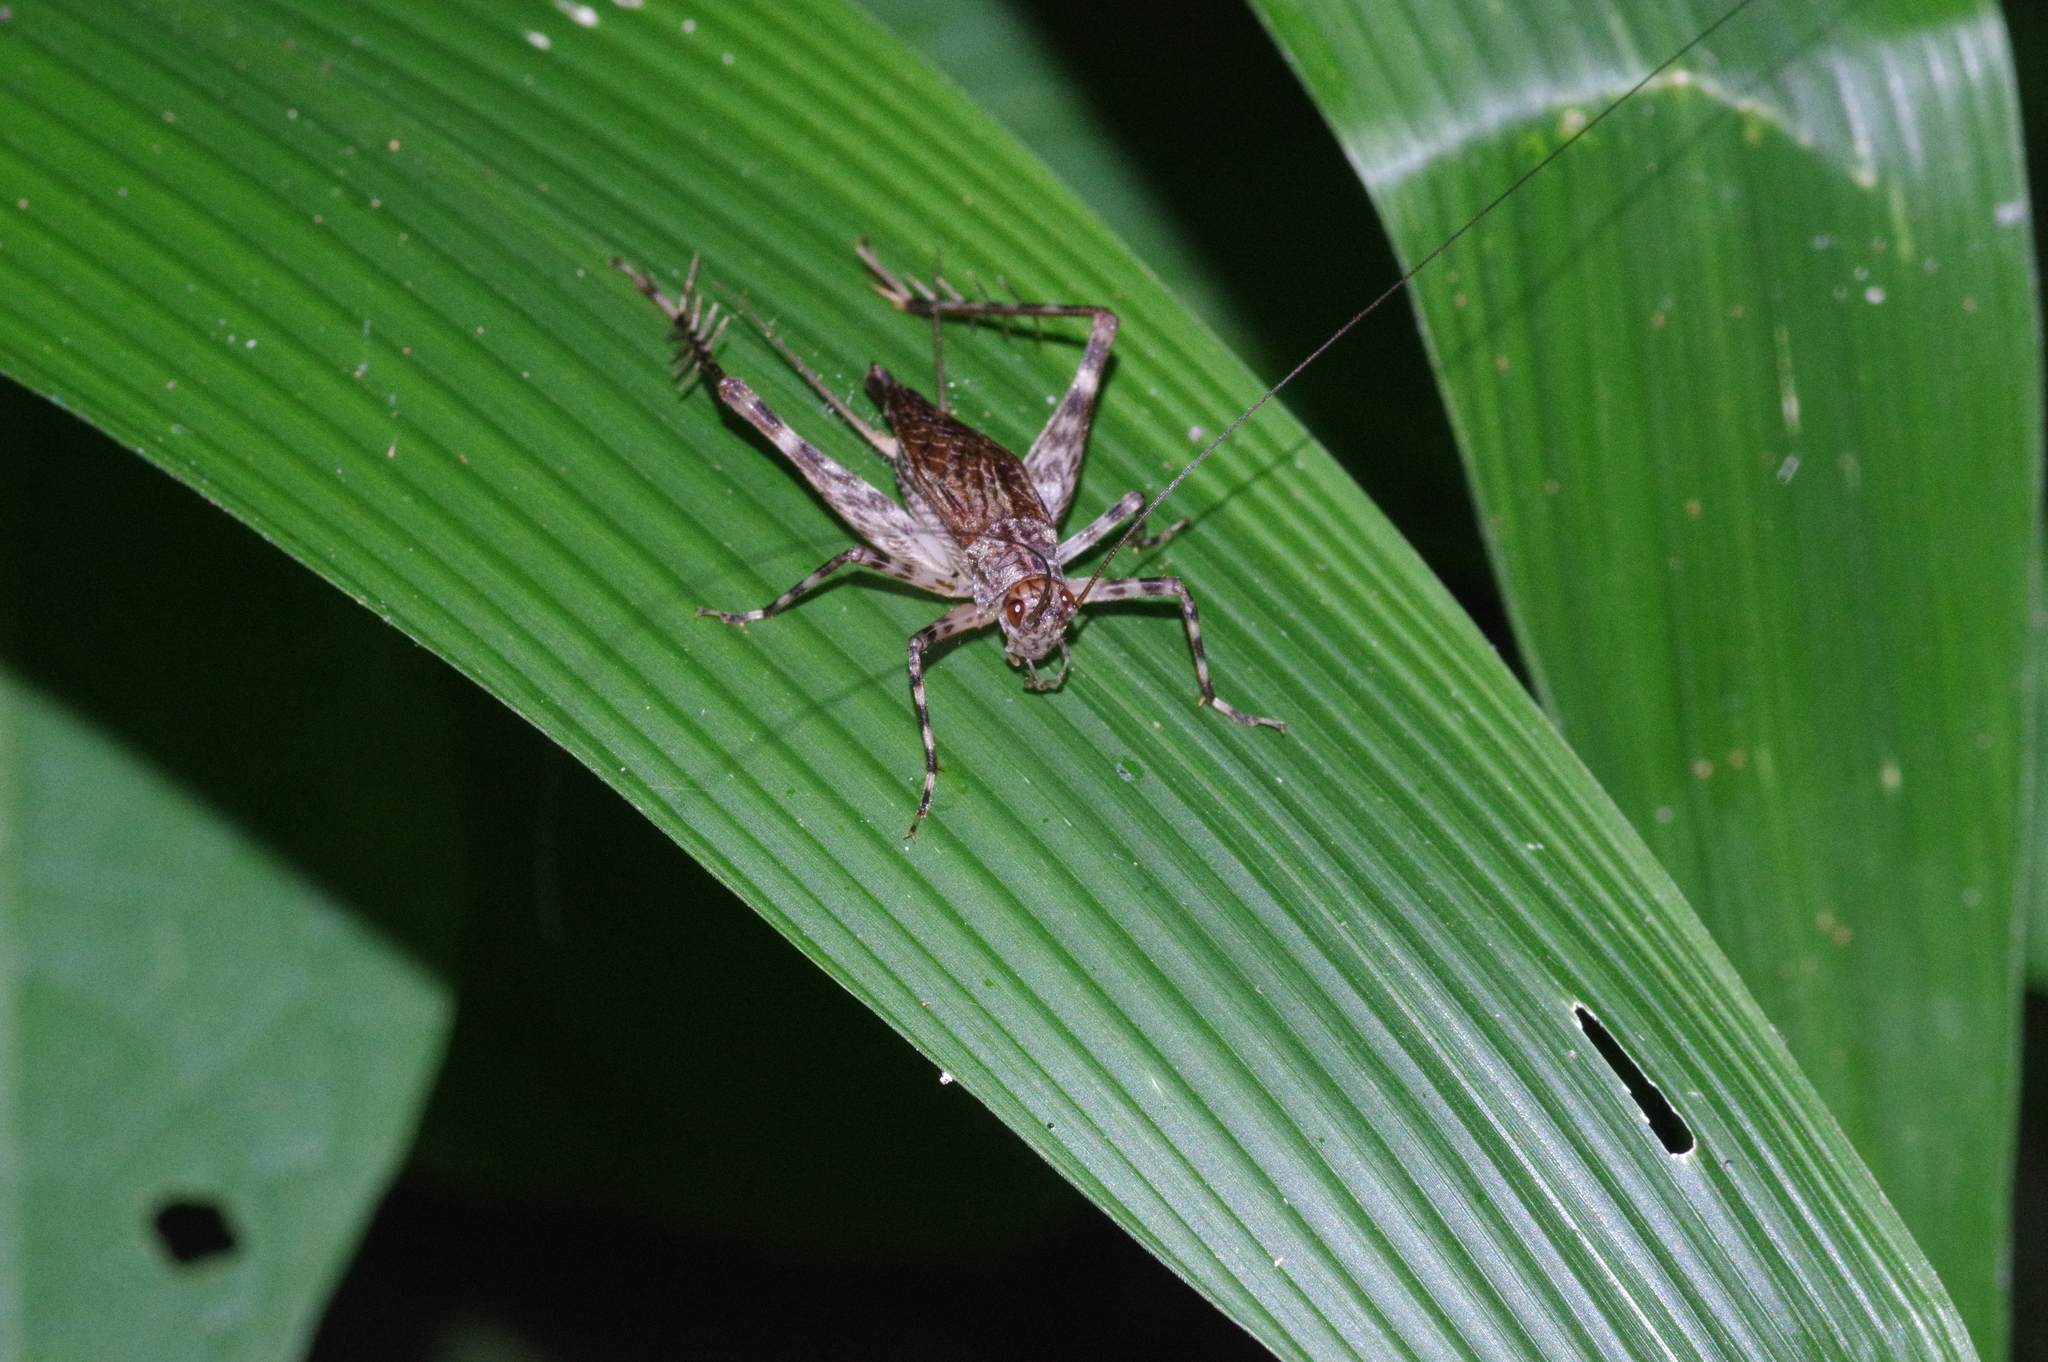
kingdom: Animalia
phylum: Arthropoda
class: Insecta
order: Orthoptera
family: Phalangopsidae
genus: Vescelia
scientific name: Vescelia pieli
